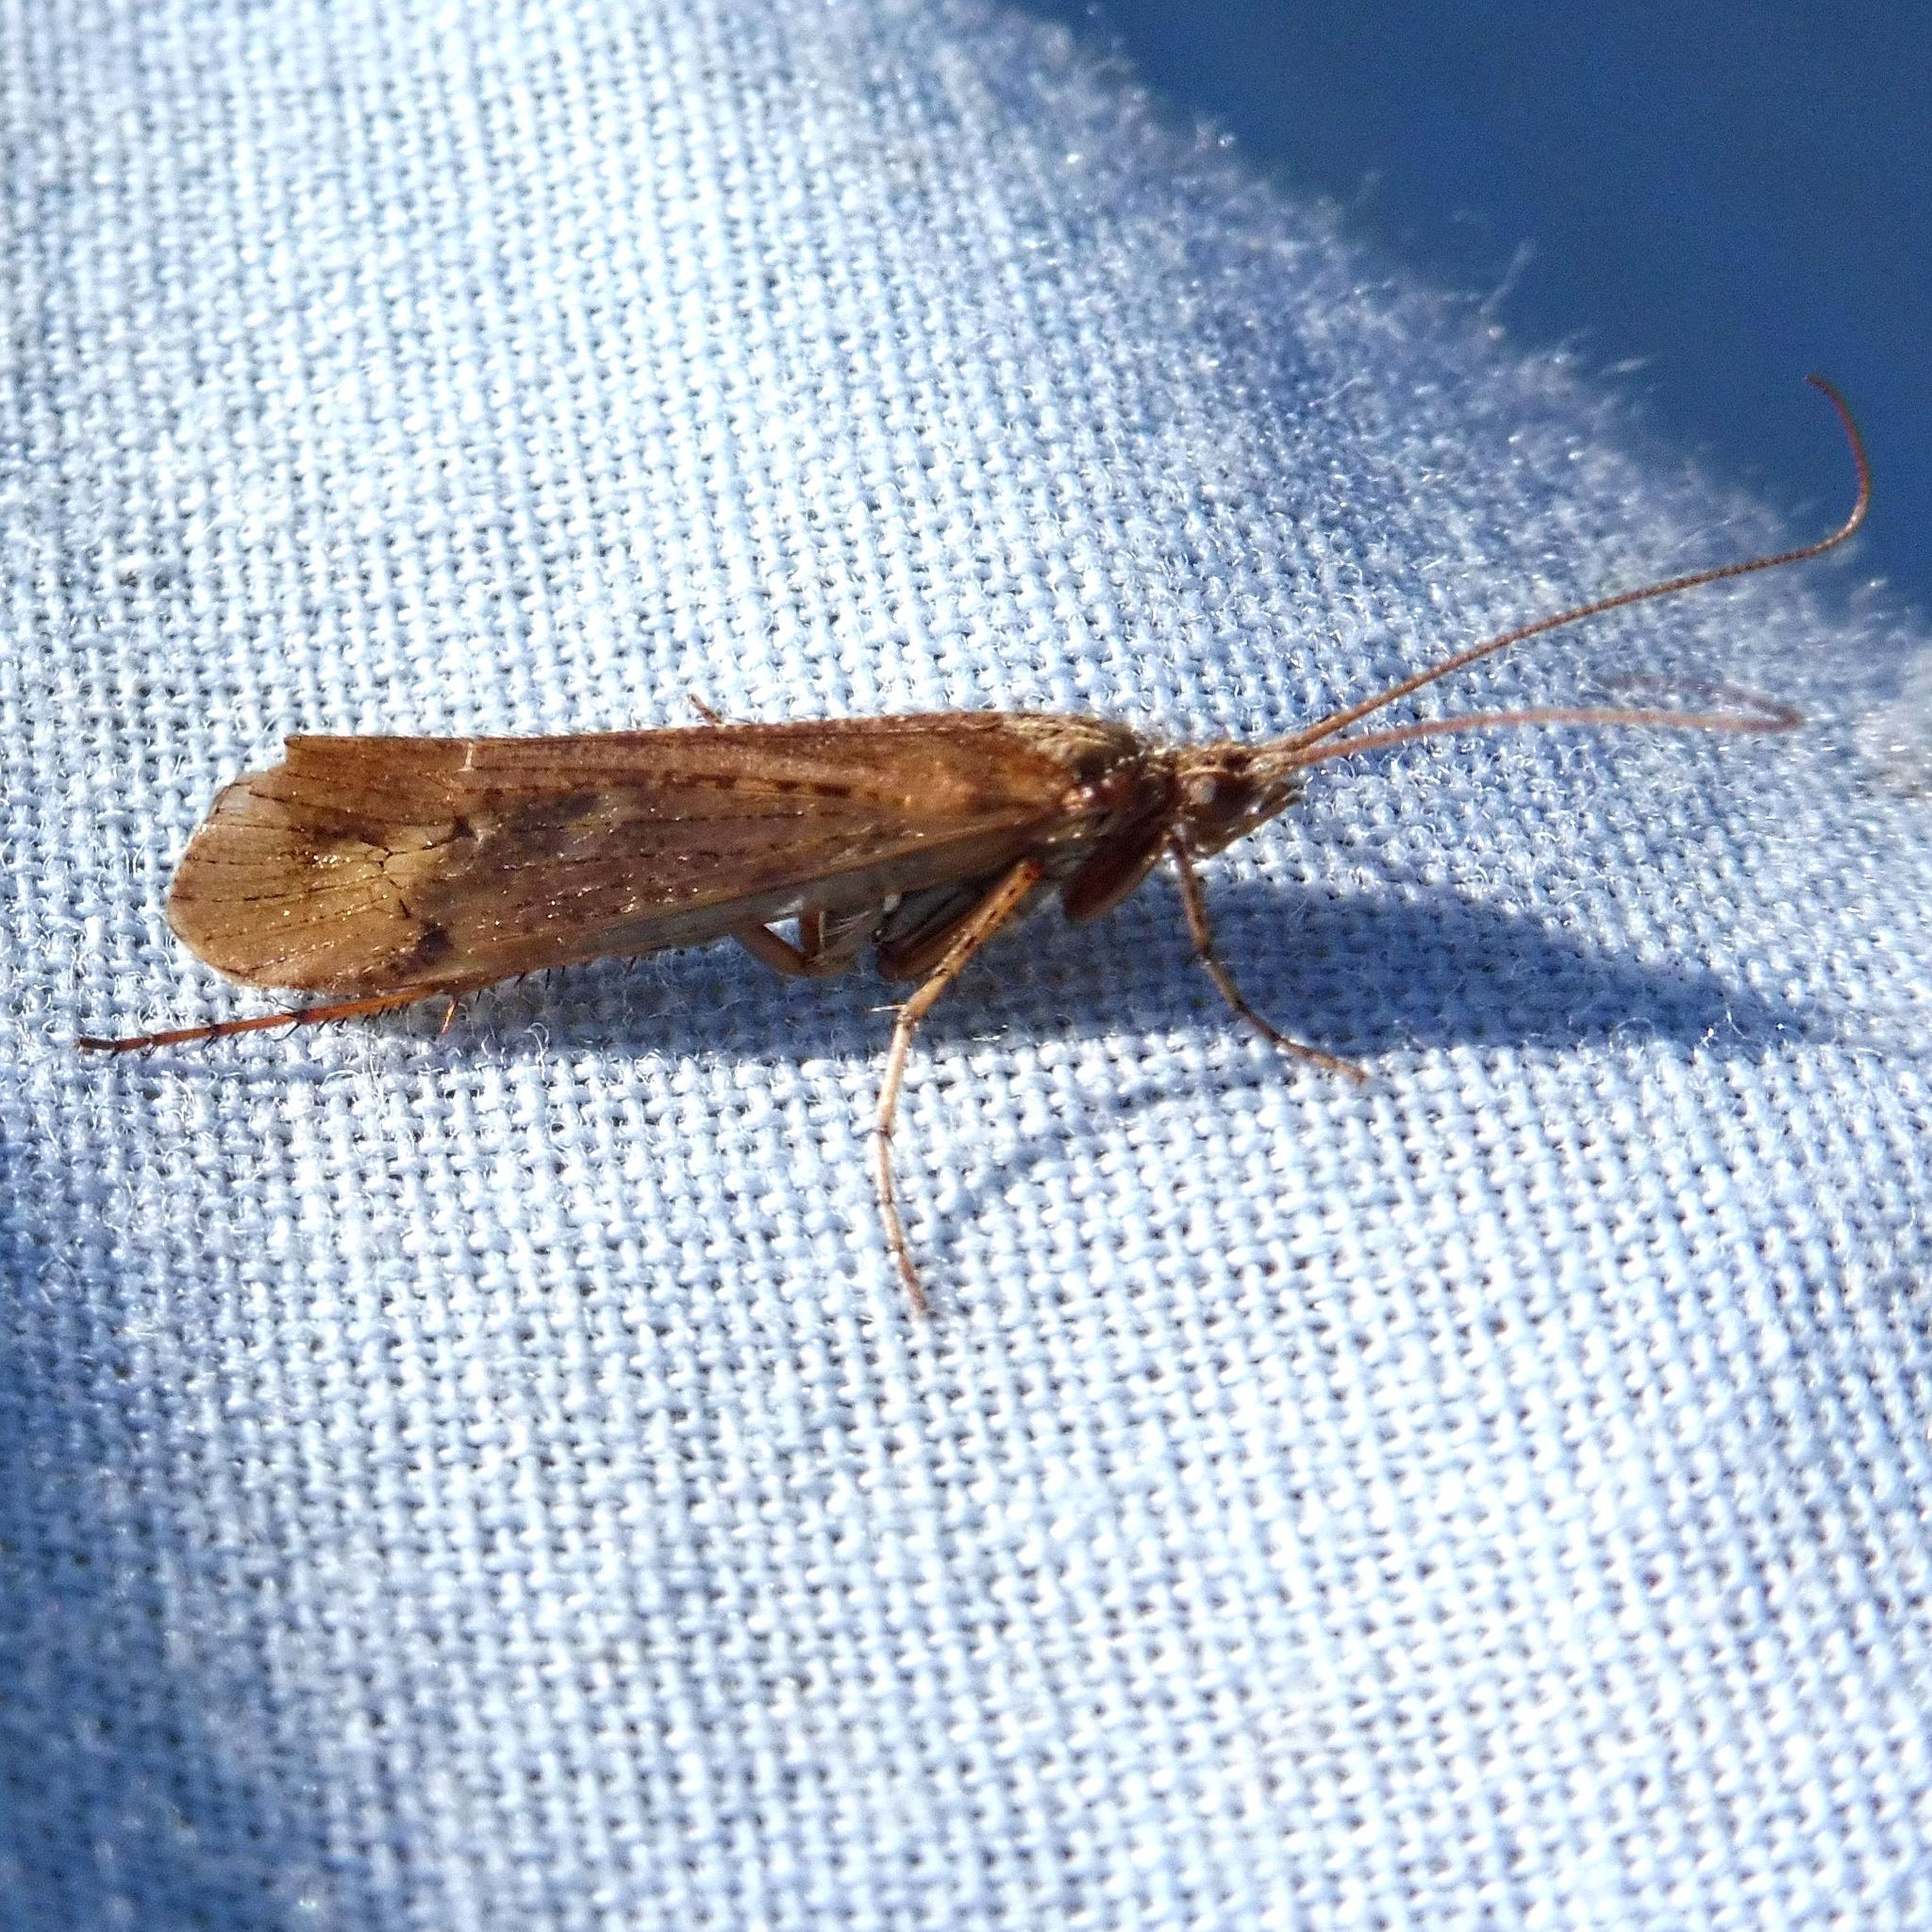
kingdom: Animalia
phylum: Arthropoda
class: Insecta
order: Trichoptera
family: Limnephilidae
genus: Limnephilus
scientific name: Limnephilus affinis
